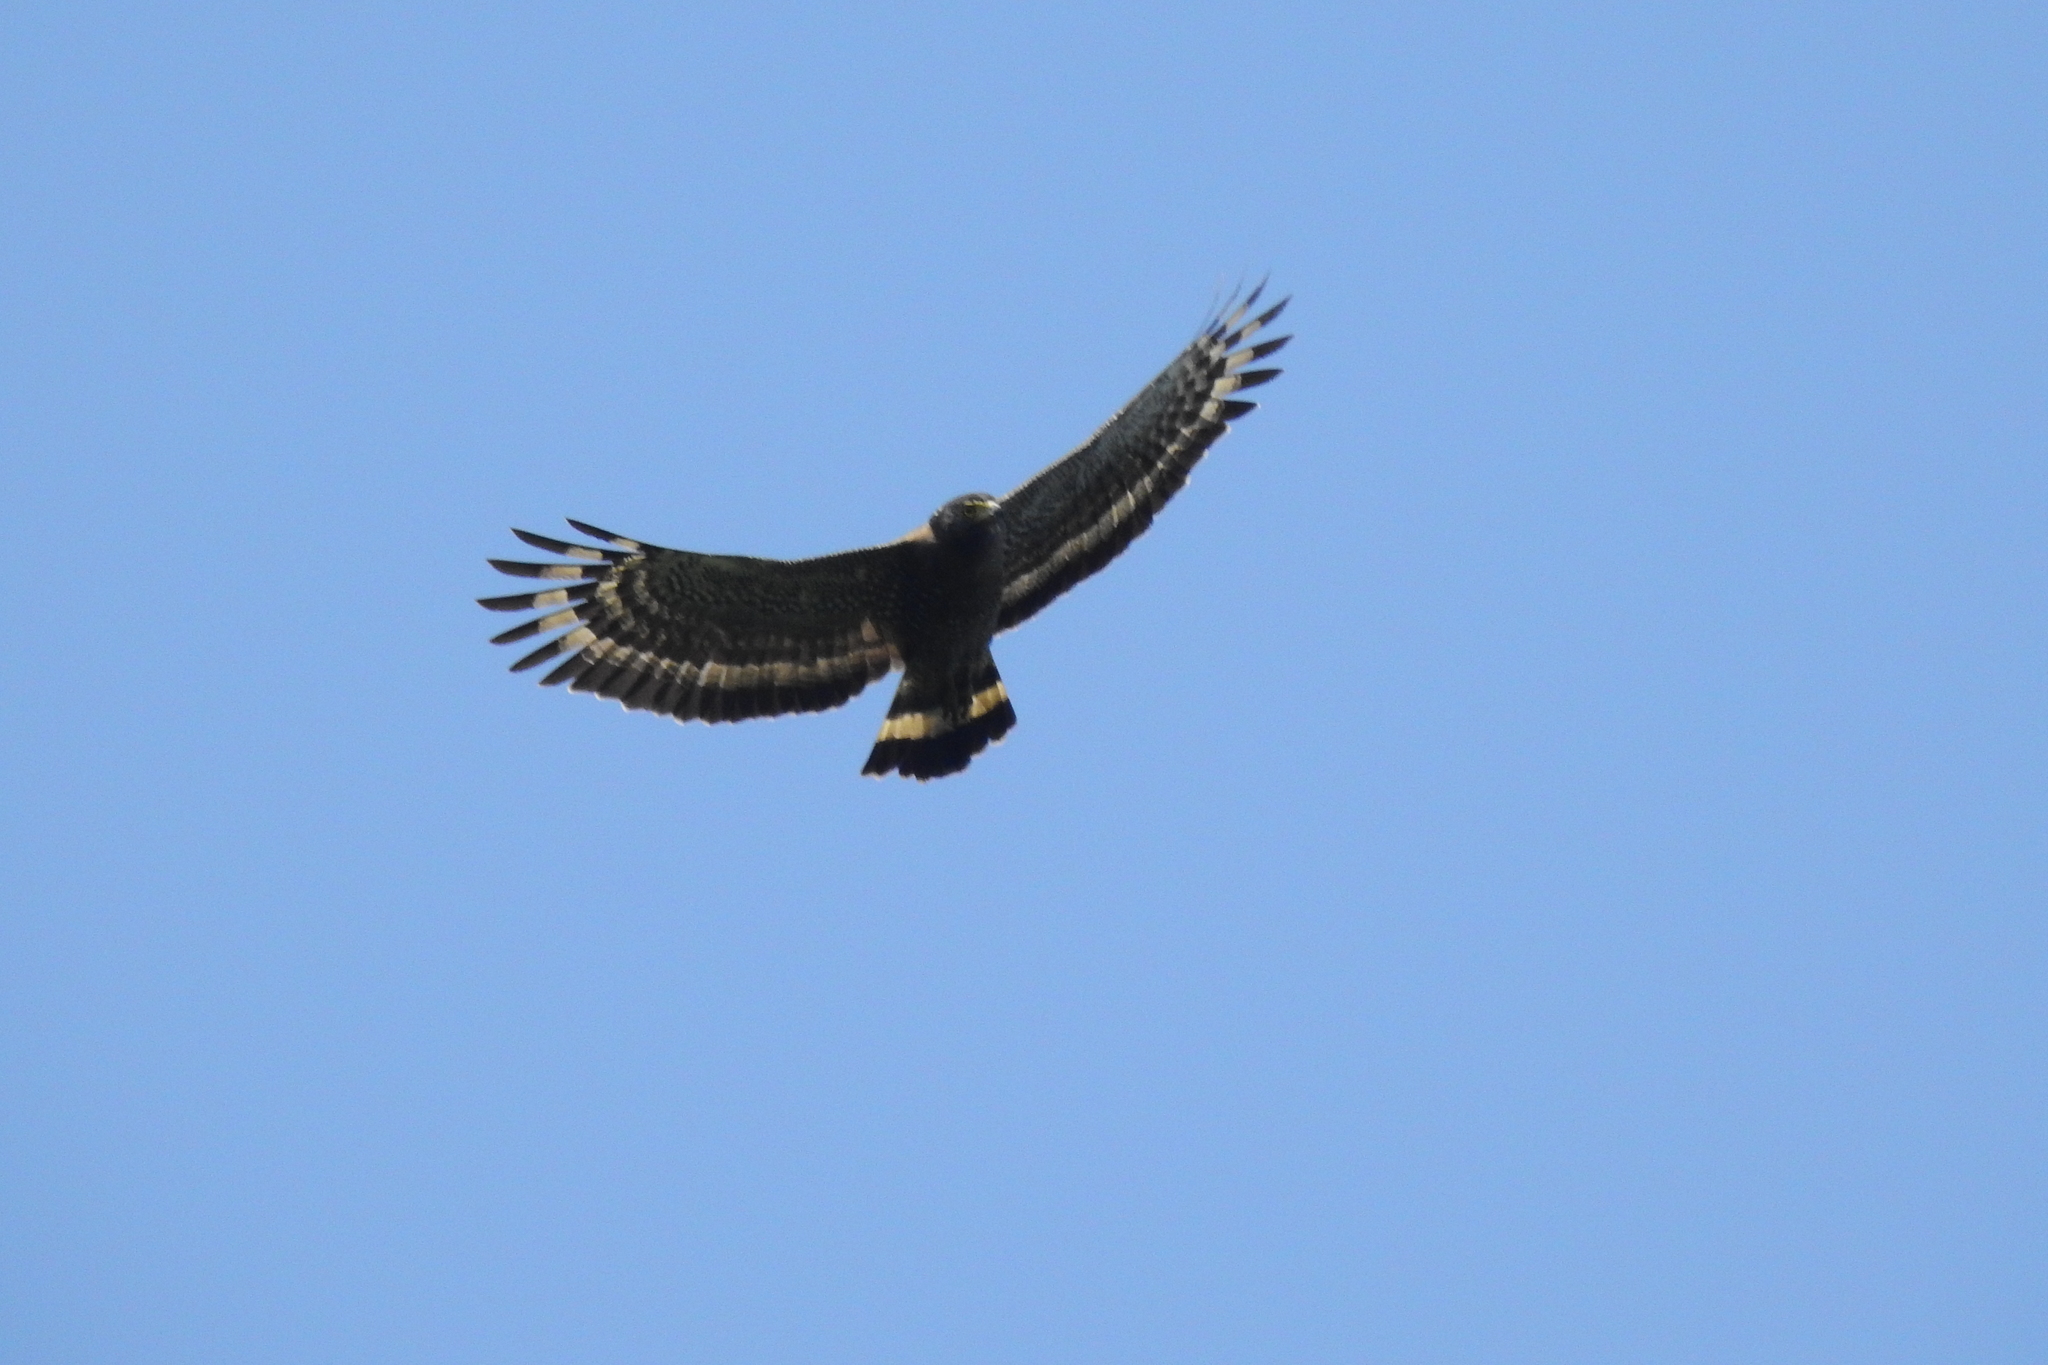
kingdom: Animalia
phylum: Chordata
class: Aves
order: Accipitriformes
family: Accipitridae
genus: Spilornis
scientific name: Spilornis cheela
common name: Crested serpent eagle
